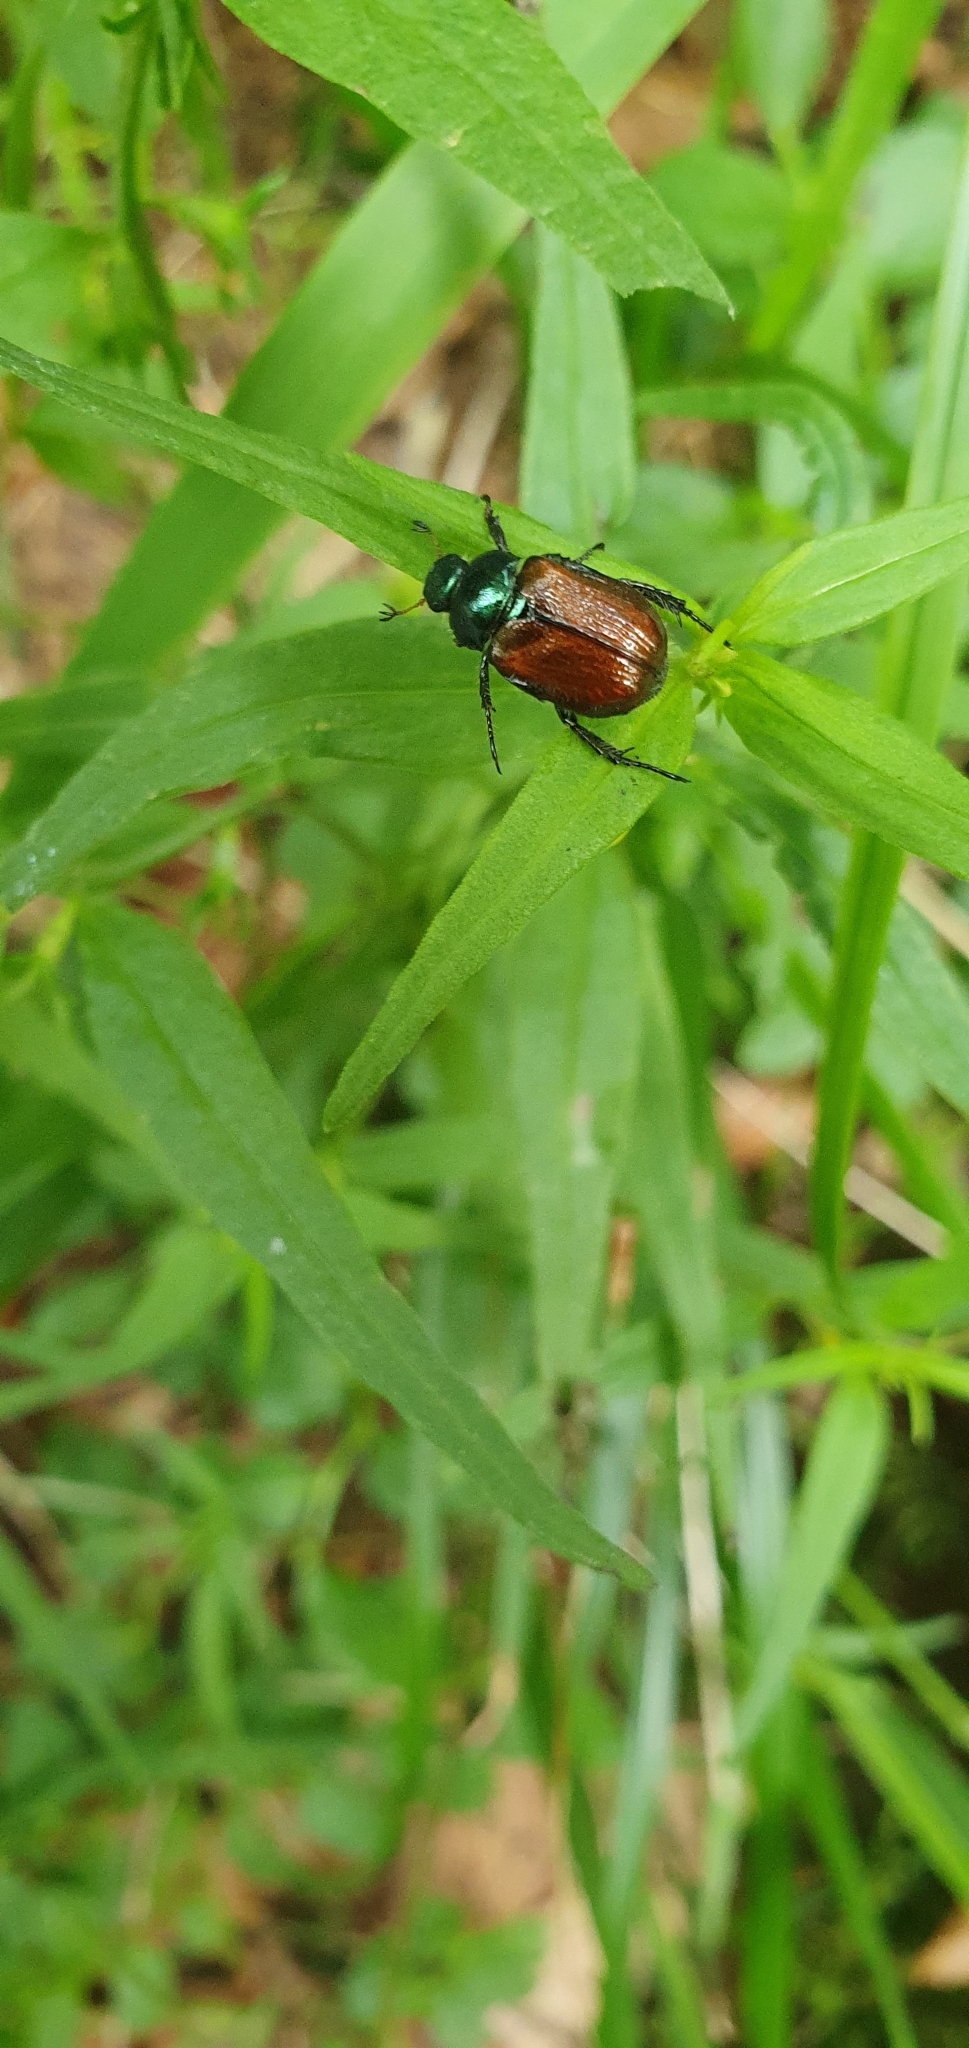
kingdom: Animalia
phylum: Arthropoda
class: Insecta
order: Coleoptera
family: Scarabaeidae
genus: Phyllopertha
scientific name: Phyllopertha horticola
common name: Garden chafer
